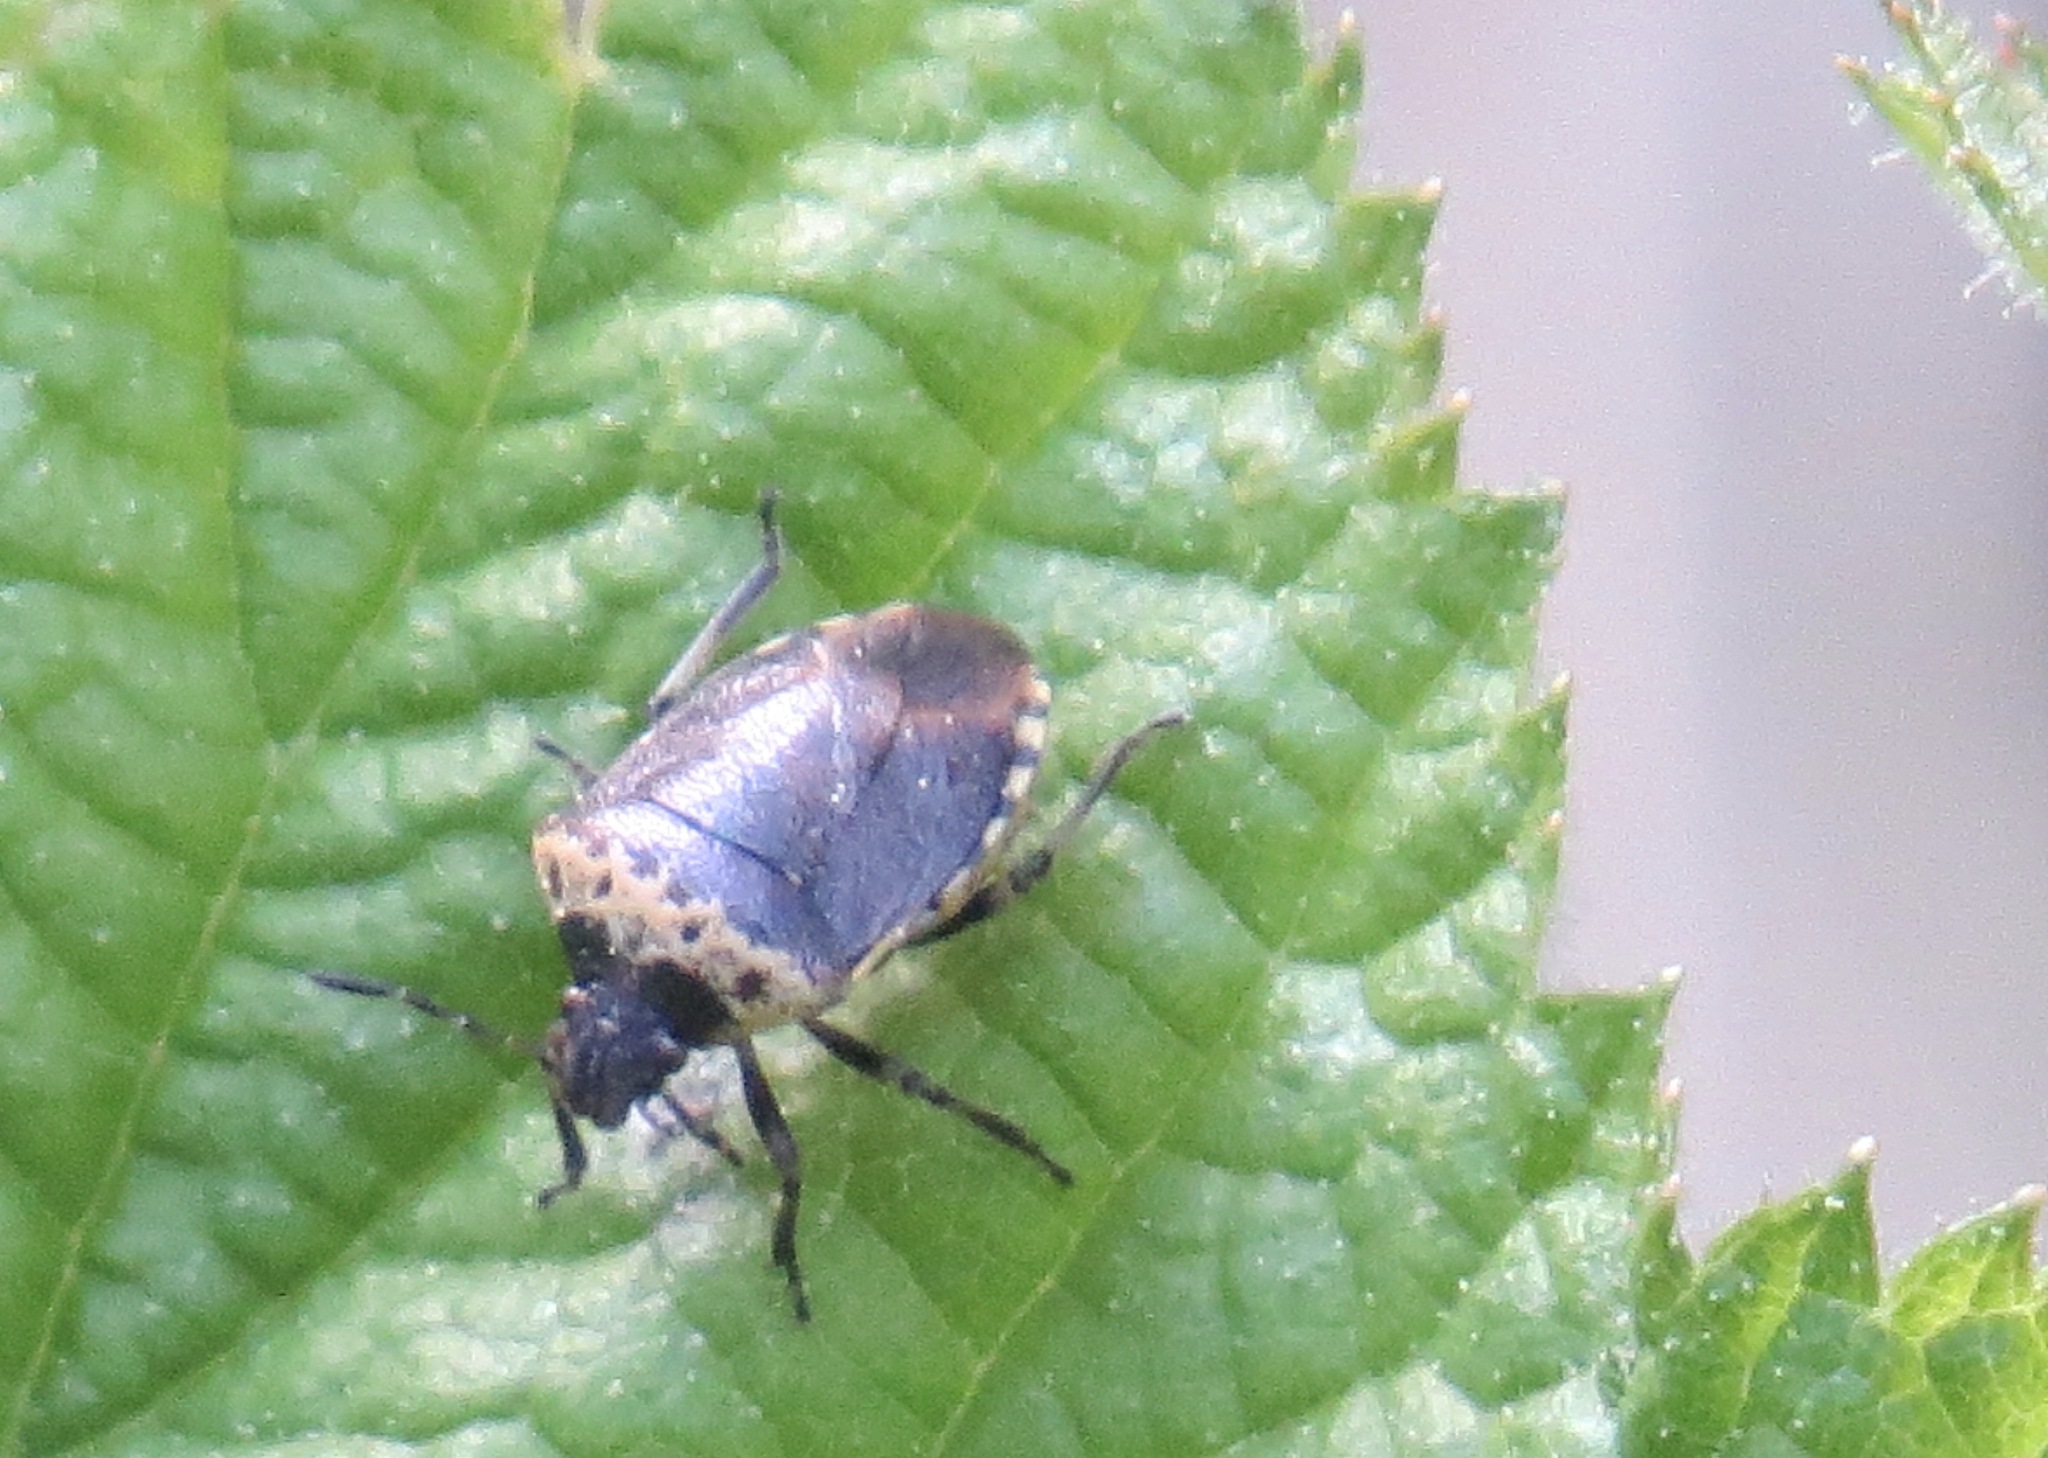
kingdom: Animalia
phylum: Arthropoda
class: Insecta
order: Hemiptera
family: Pentatomidae
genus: Cosmopepla
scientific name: Cosmopepla uhleri
